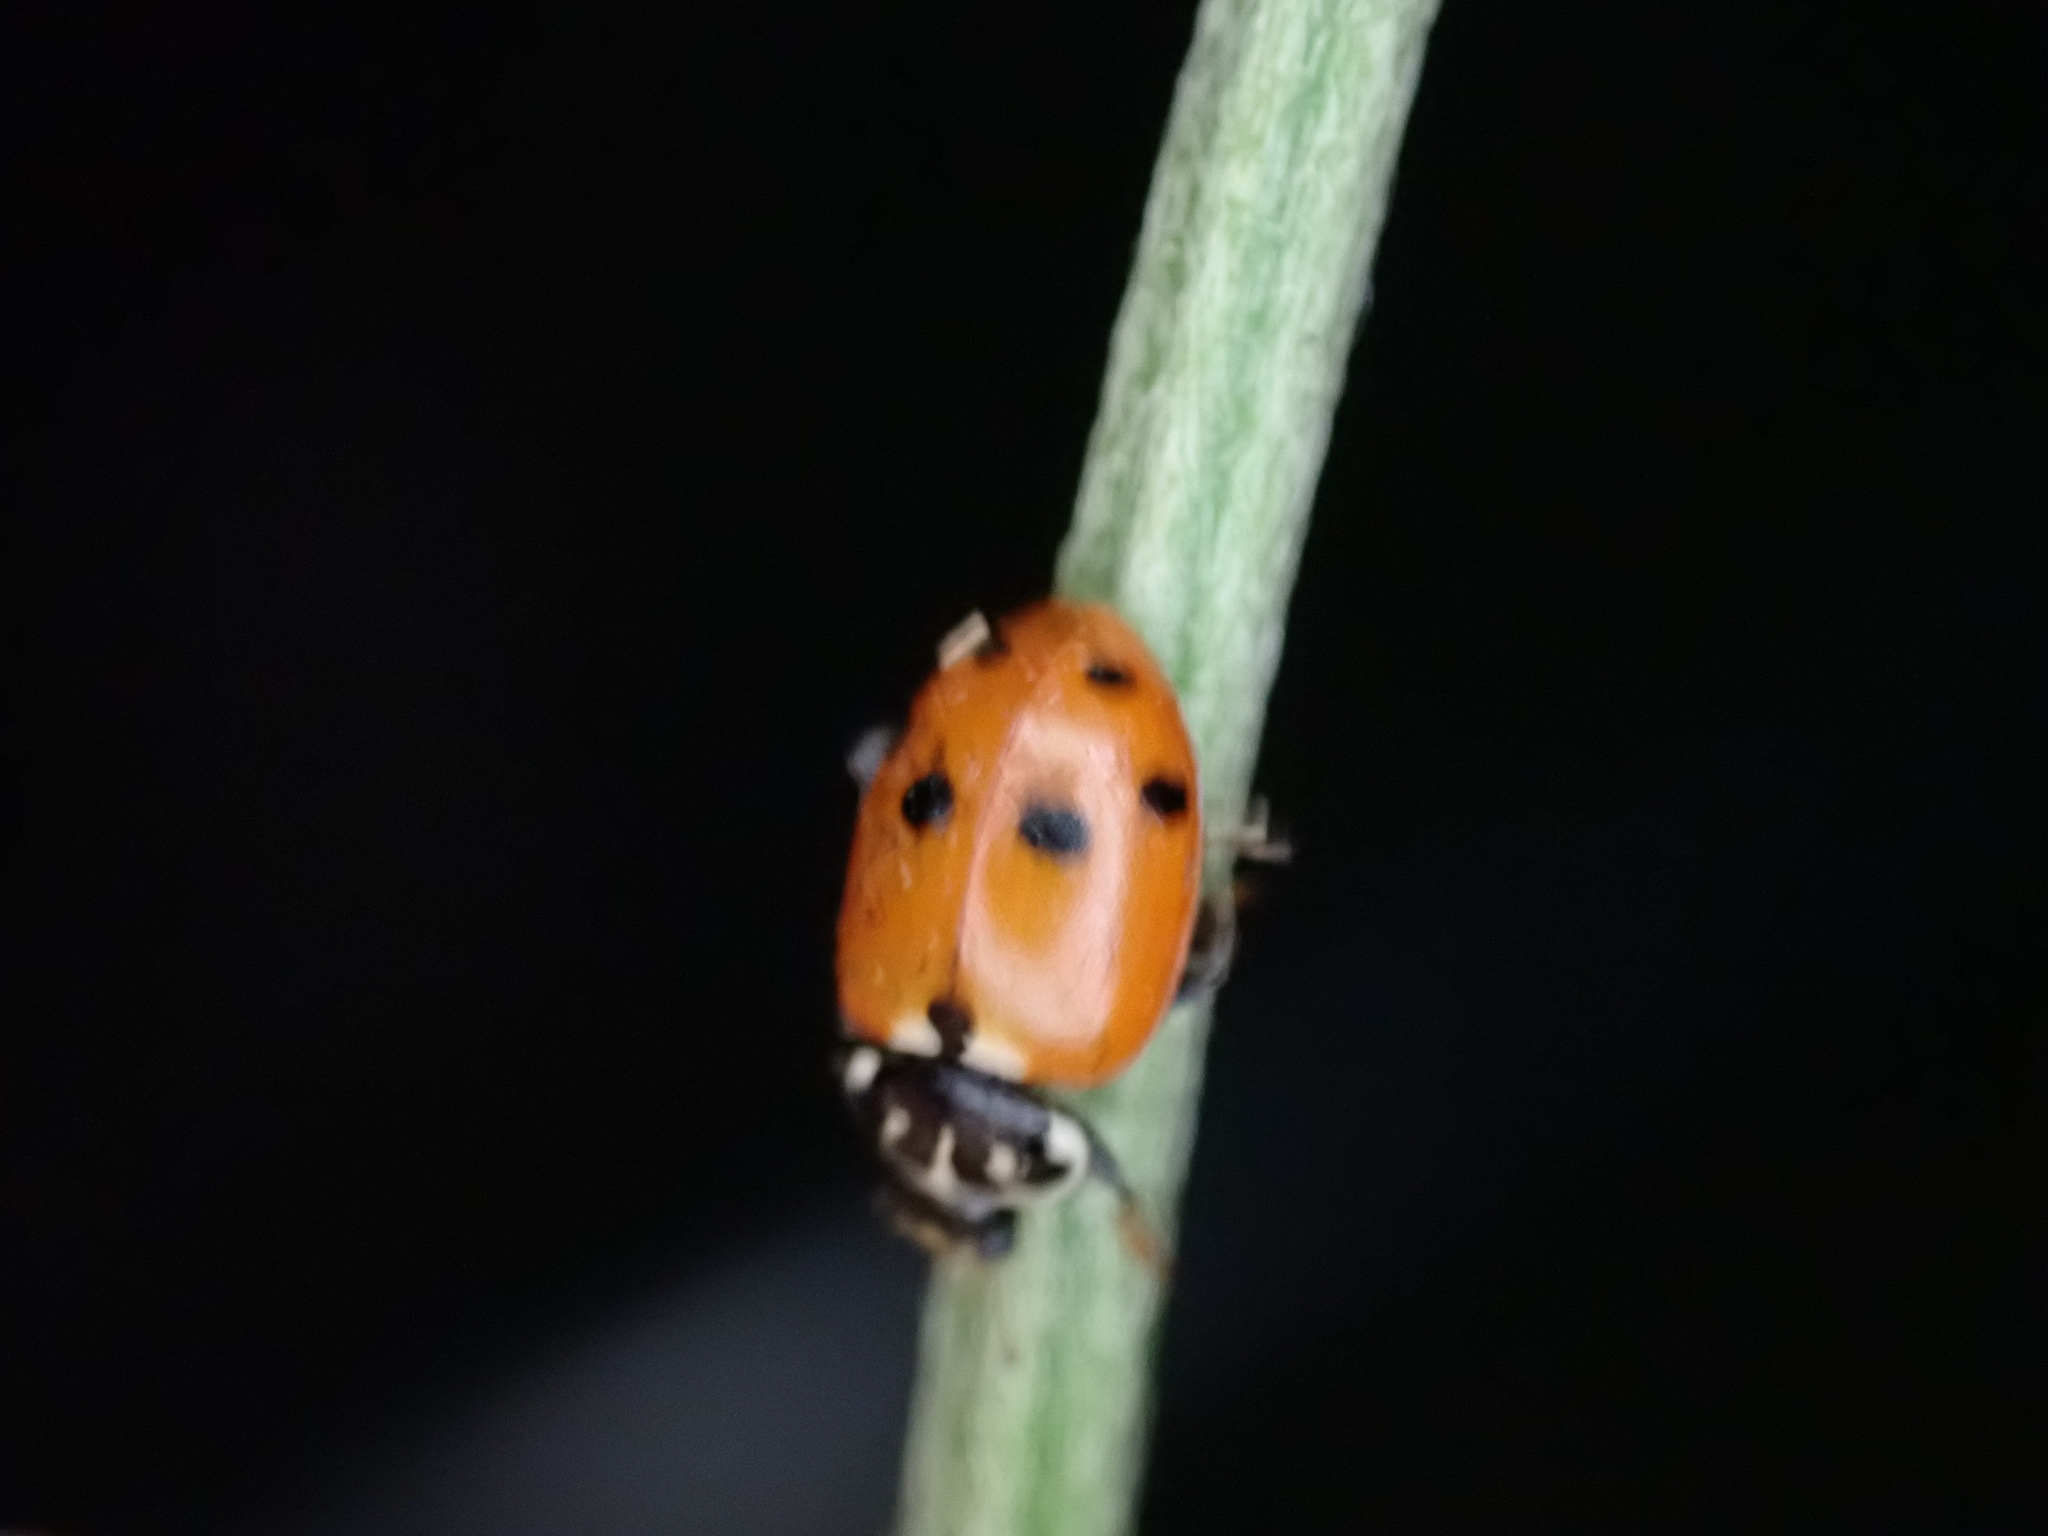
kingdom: Animalia
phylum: Arthropoda
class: Insecta
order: Coleoptera
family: Coccinellidae
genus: Hippodamia
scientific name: Hippodamia variegata
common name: Ladybird beetle
